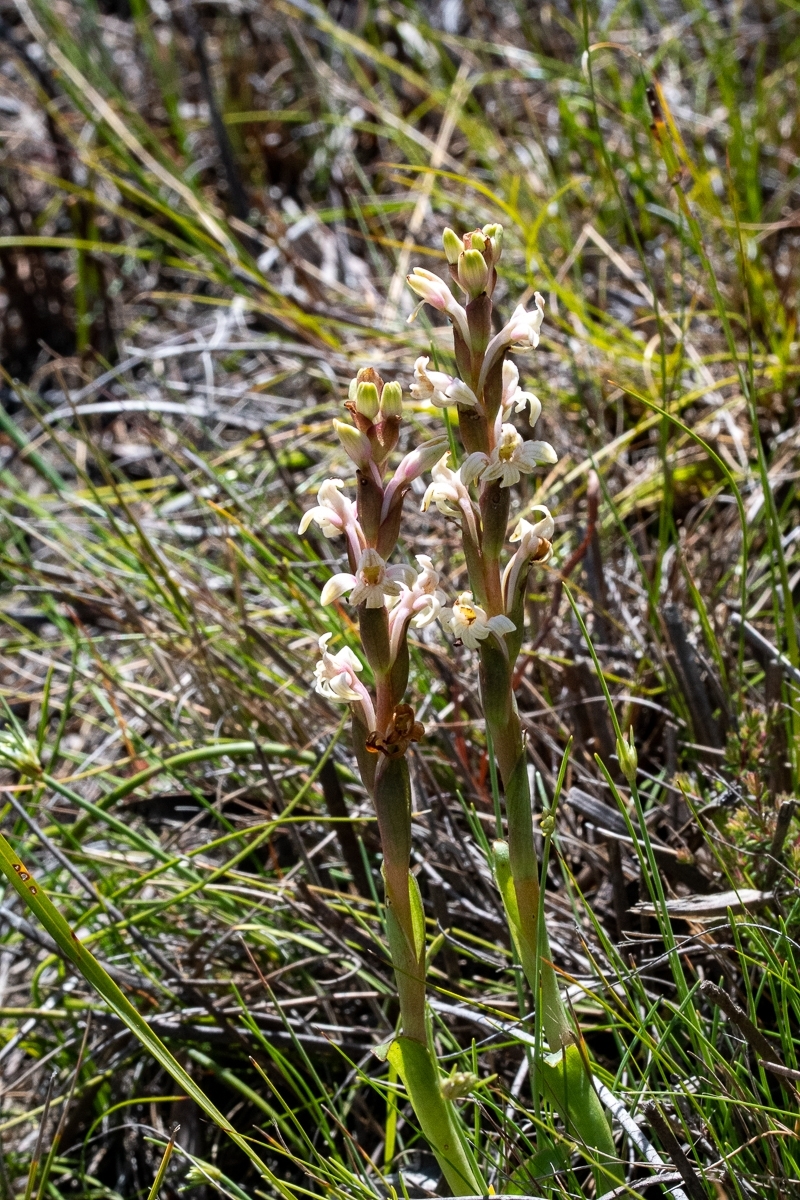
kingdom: Plantae
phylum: Tracheophyta
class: Liliopsida
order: Asparagales
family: Orchidaceae
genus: Satyrium
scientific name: Satyrium stenopetalum
